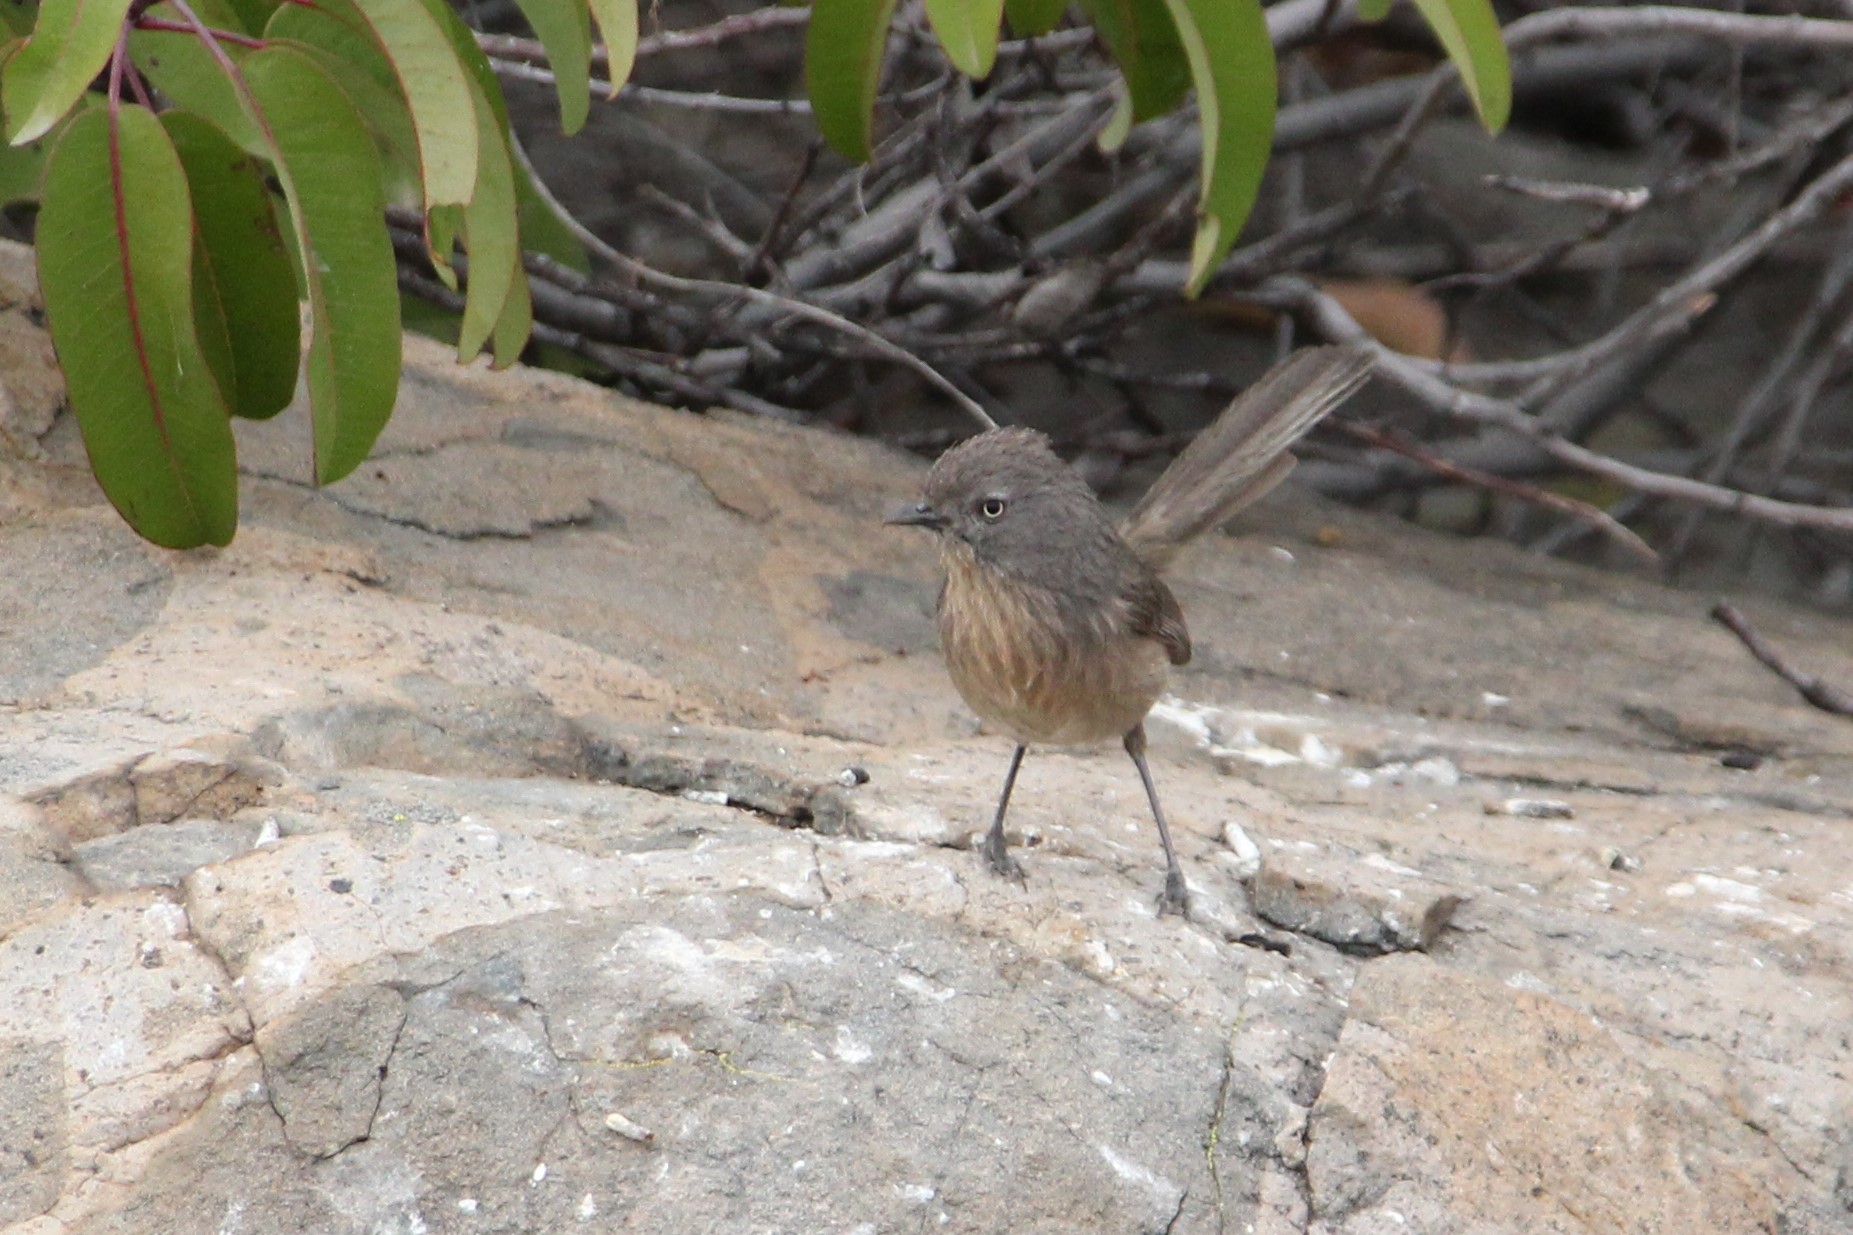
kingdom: Animalia
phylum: Chordata
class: Aves
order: Passeriformes
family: Sylviidae
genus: Chamaea
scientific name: Chamaea fasciata
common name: Wrentit
